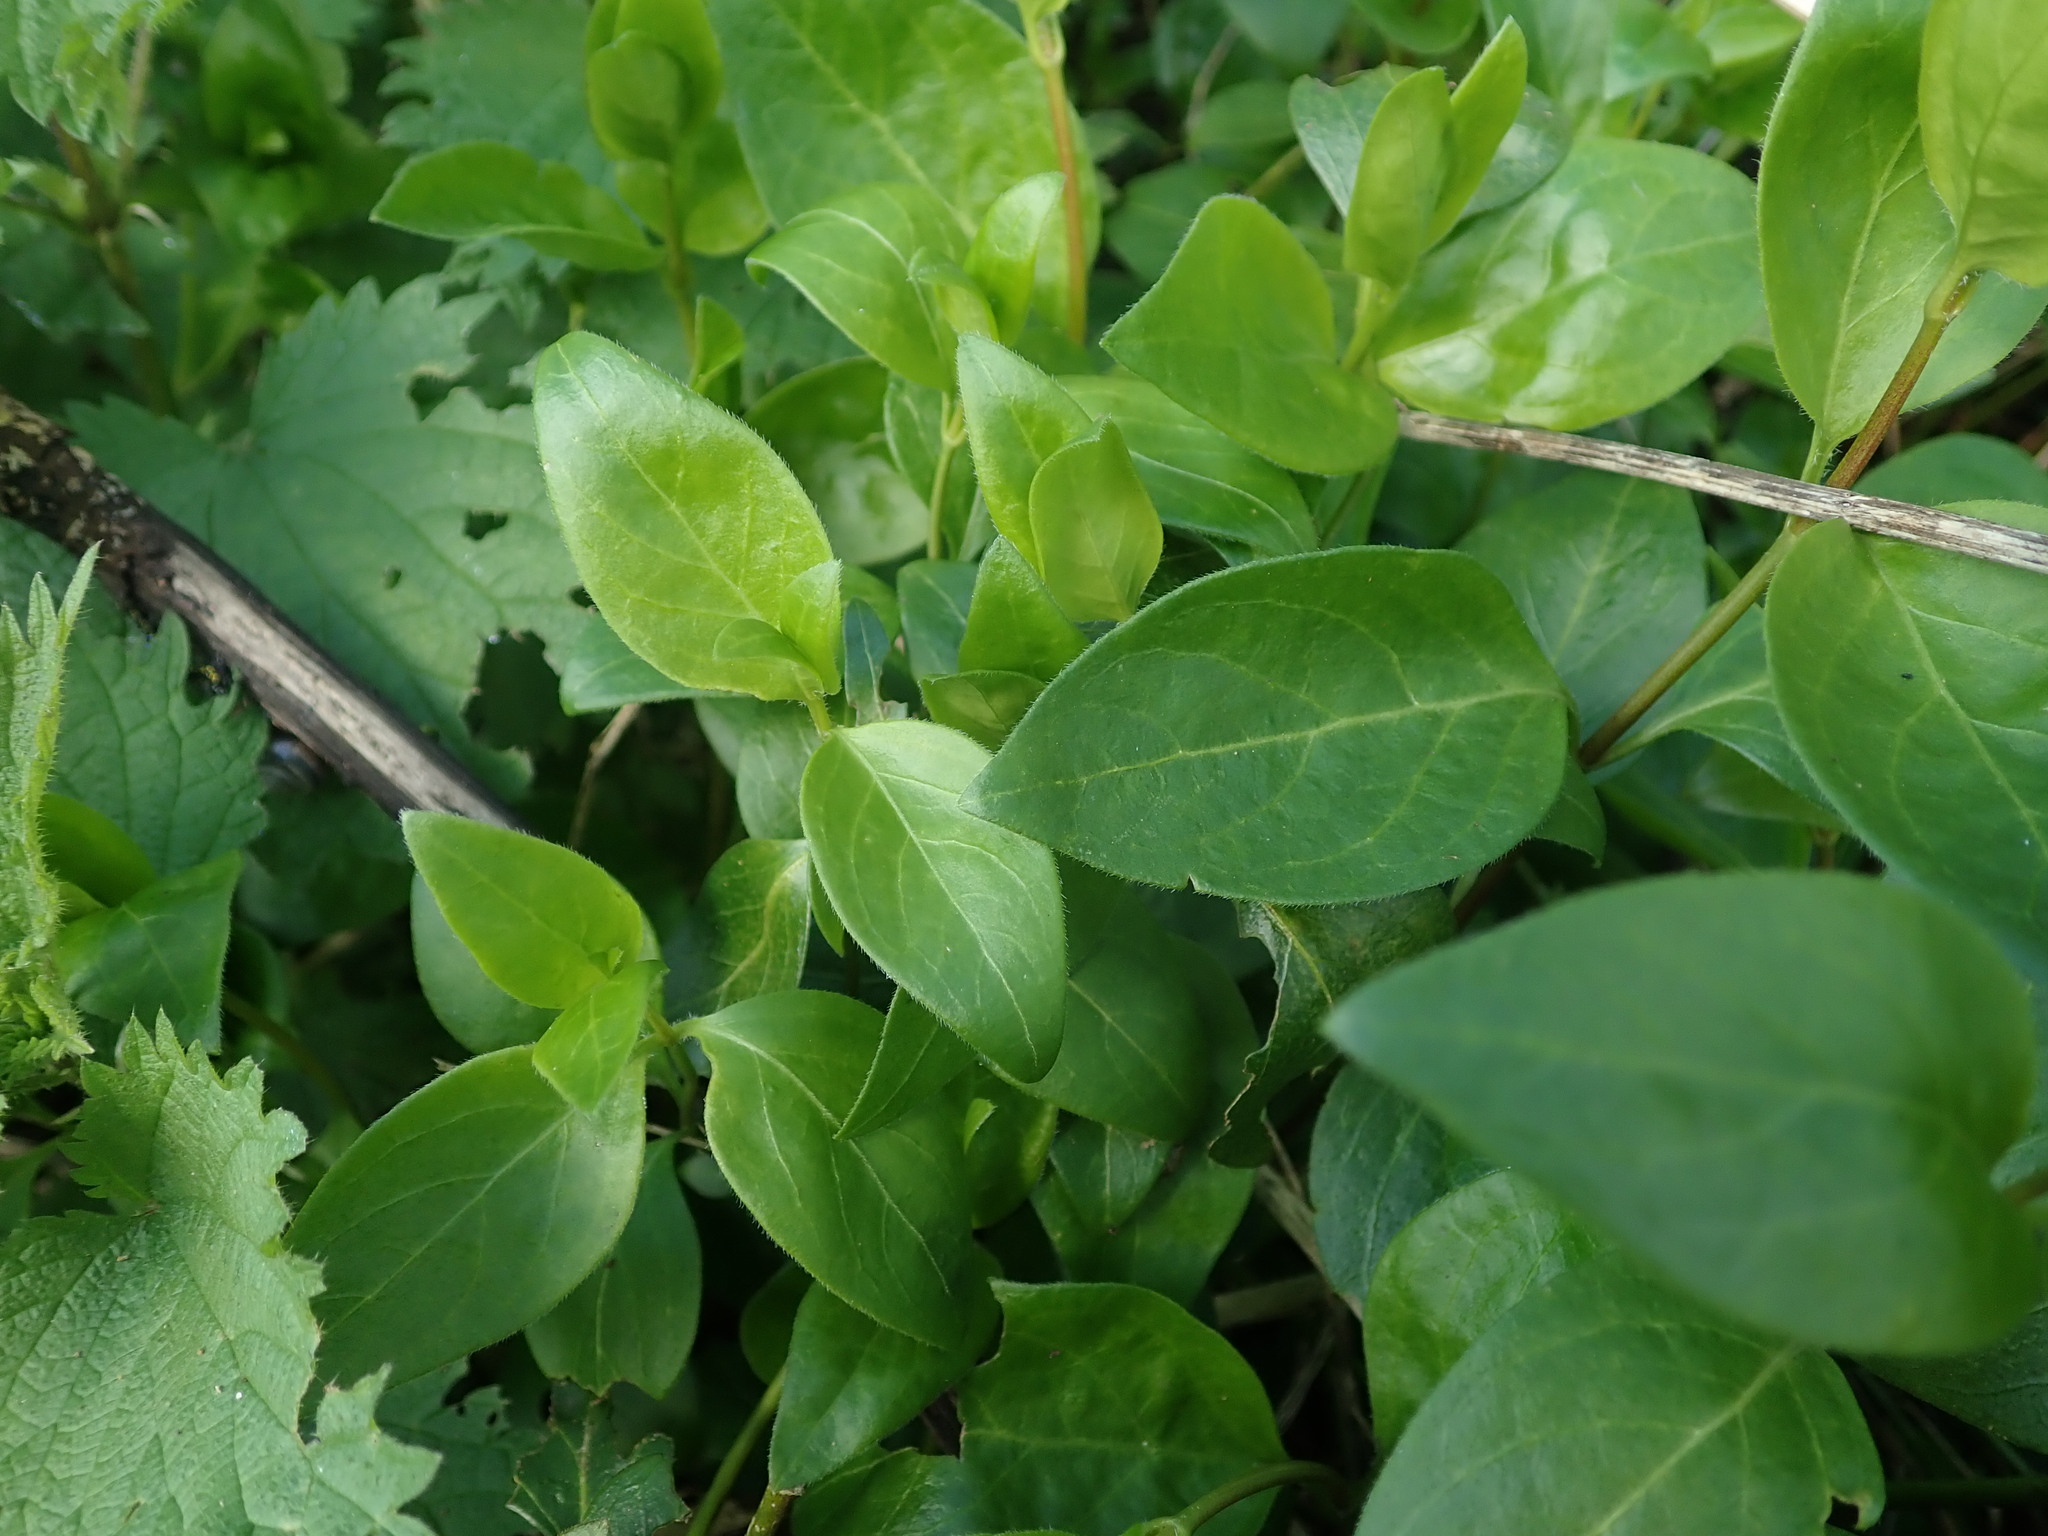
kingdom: Plantae
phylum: Tracheophyta
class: Magnoliopsida
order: Gentianales
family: Apocynaceae
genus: Vinca
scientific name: Vinca major
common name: Greater periwinkle
